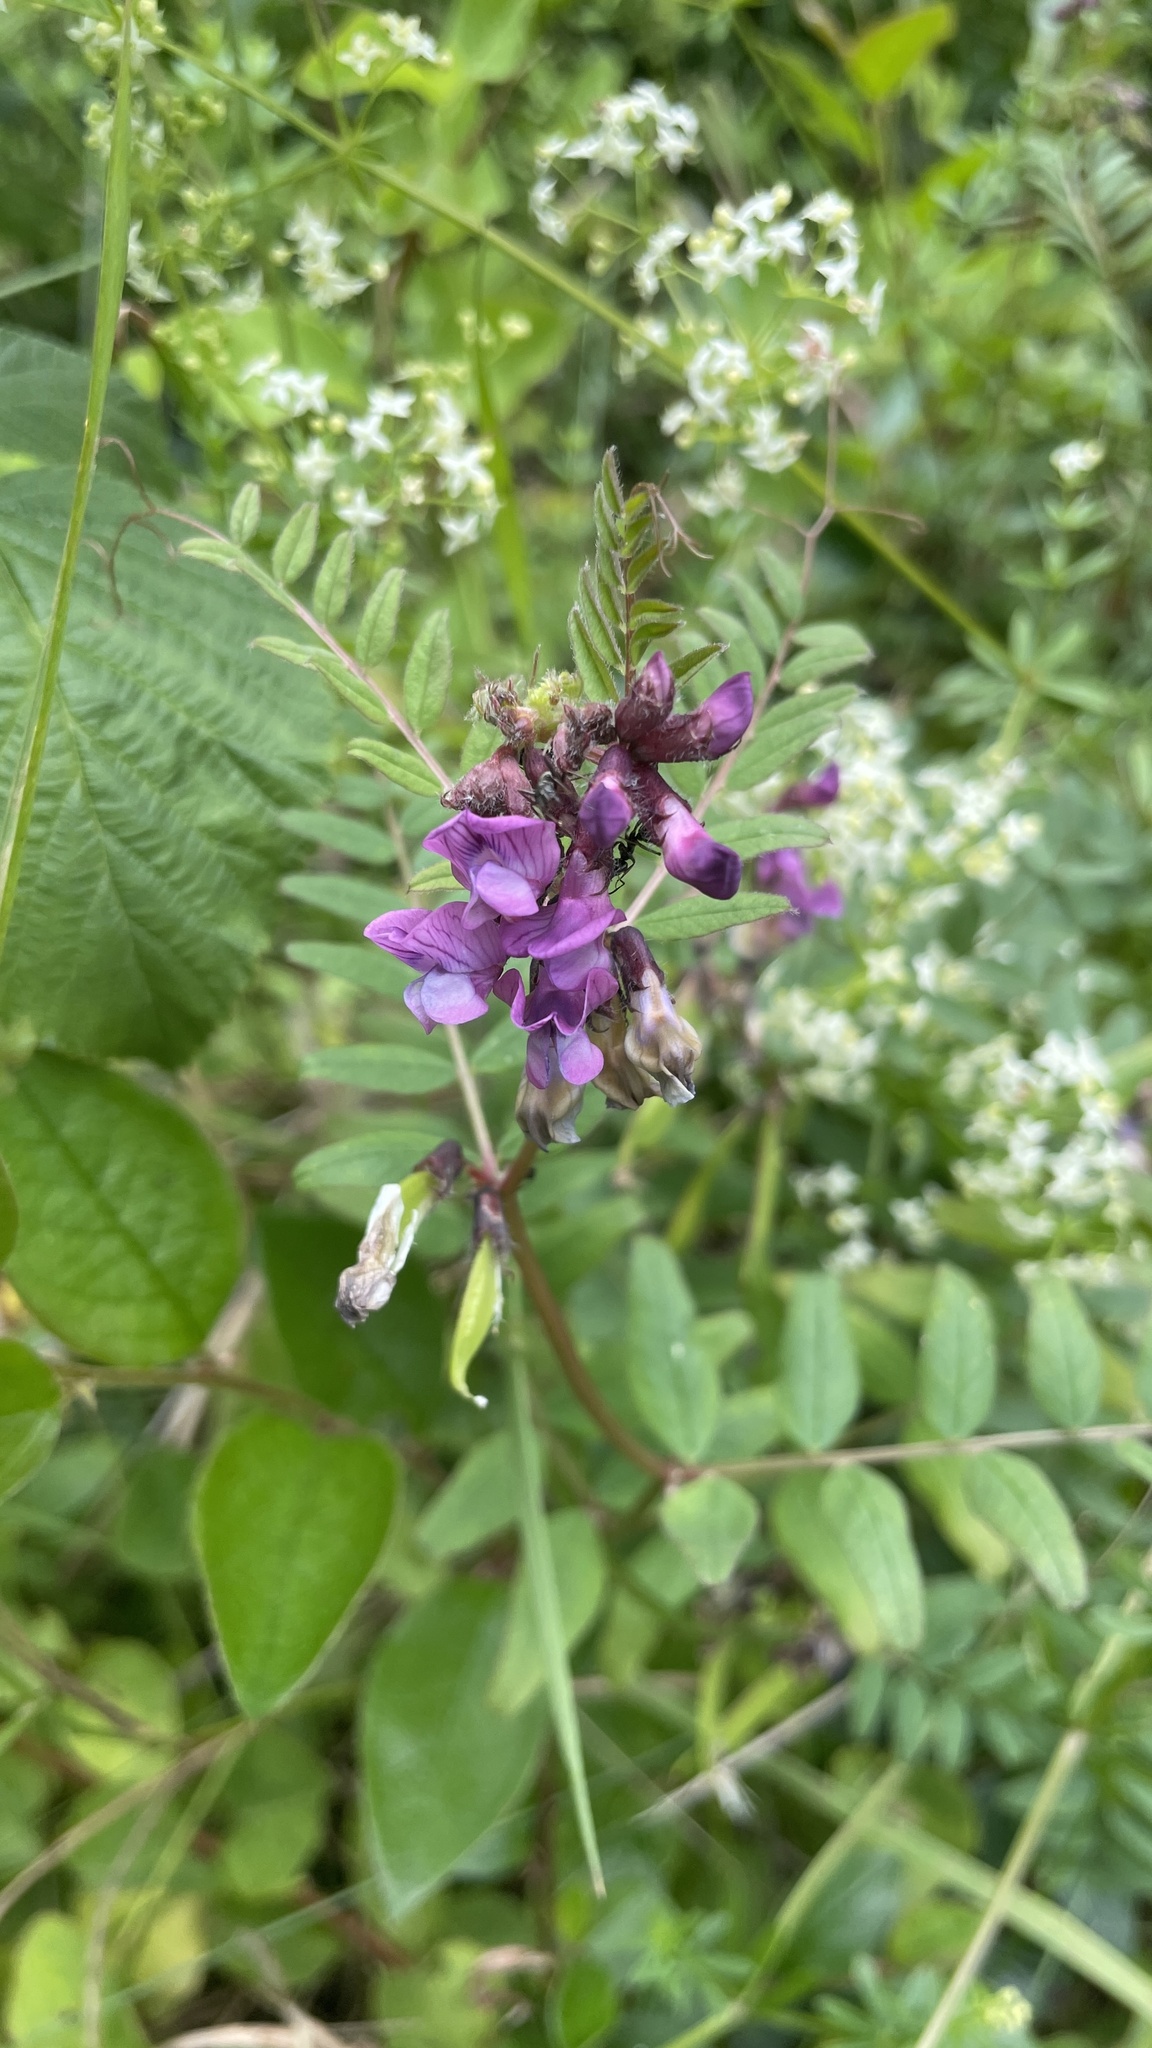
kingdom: Plantae
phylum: Tracheophyta
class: Magnoliopsida
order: Fabales
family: Fabaceae
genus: Vicia
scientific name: Vicia sepium
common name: Bush vetch
